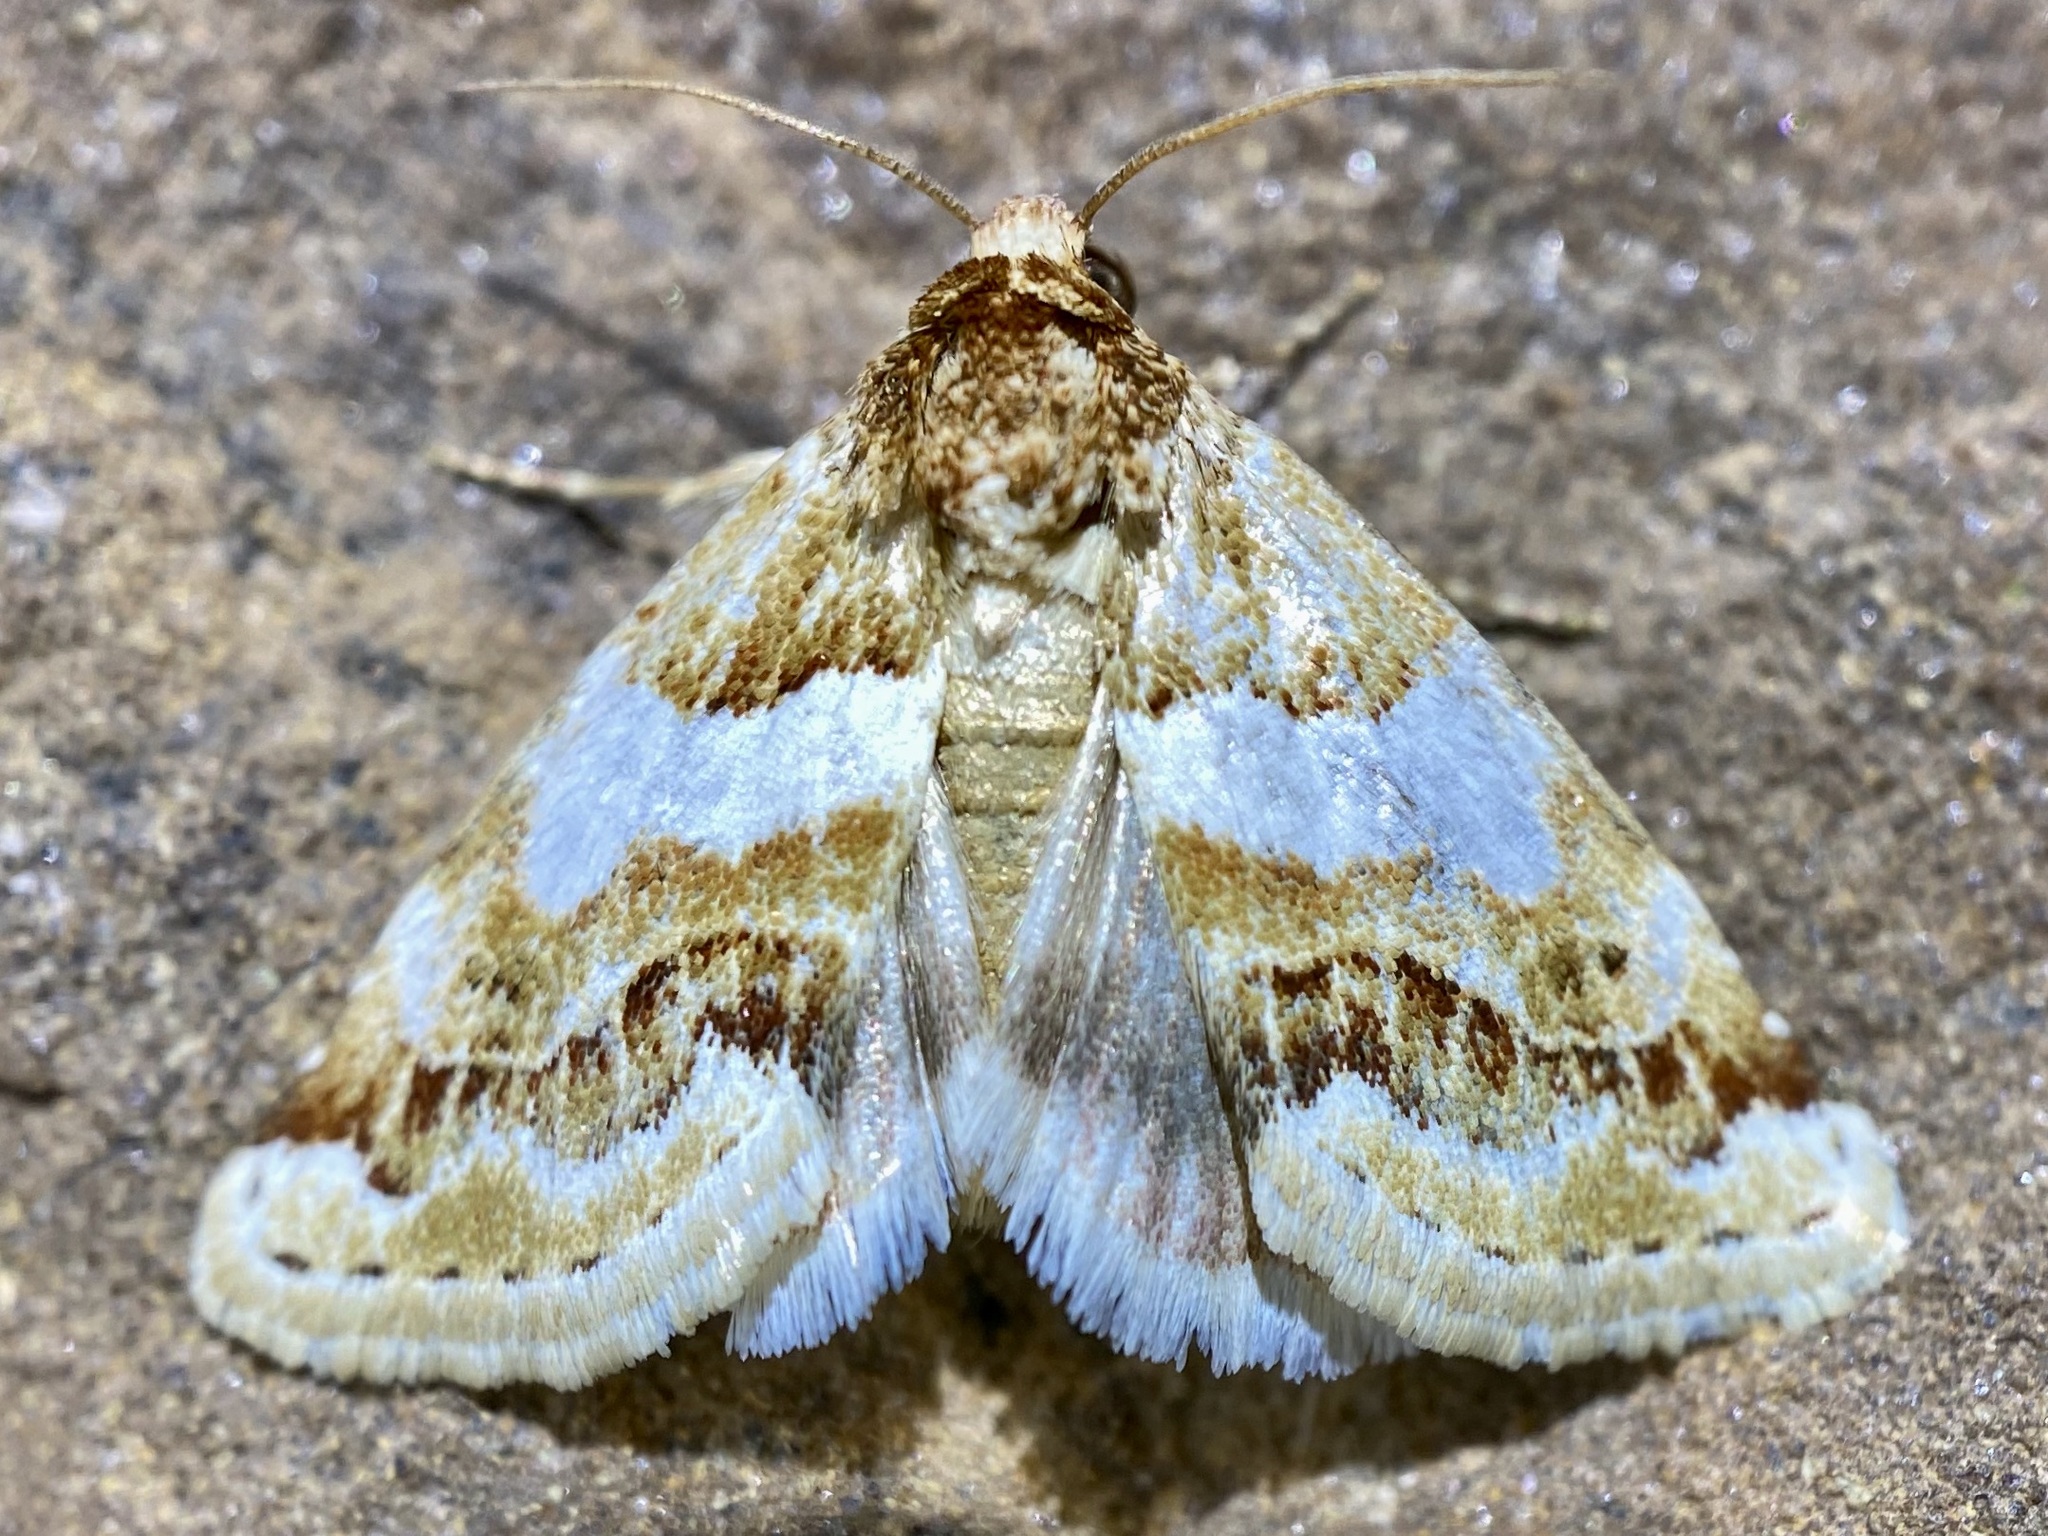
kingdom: Animalia
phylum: Arthropoda
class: Insecta
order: Lepidoptera
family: Noctuidae
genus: Schinia
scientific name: Schinia argentifascia
